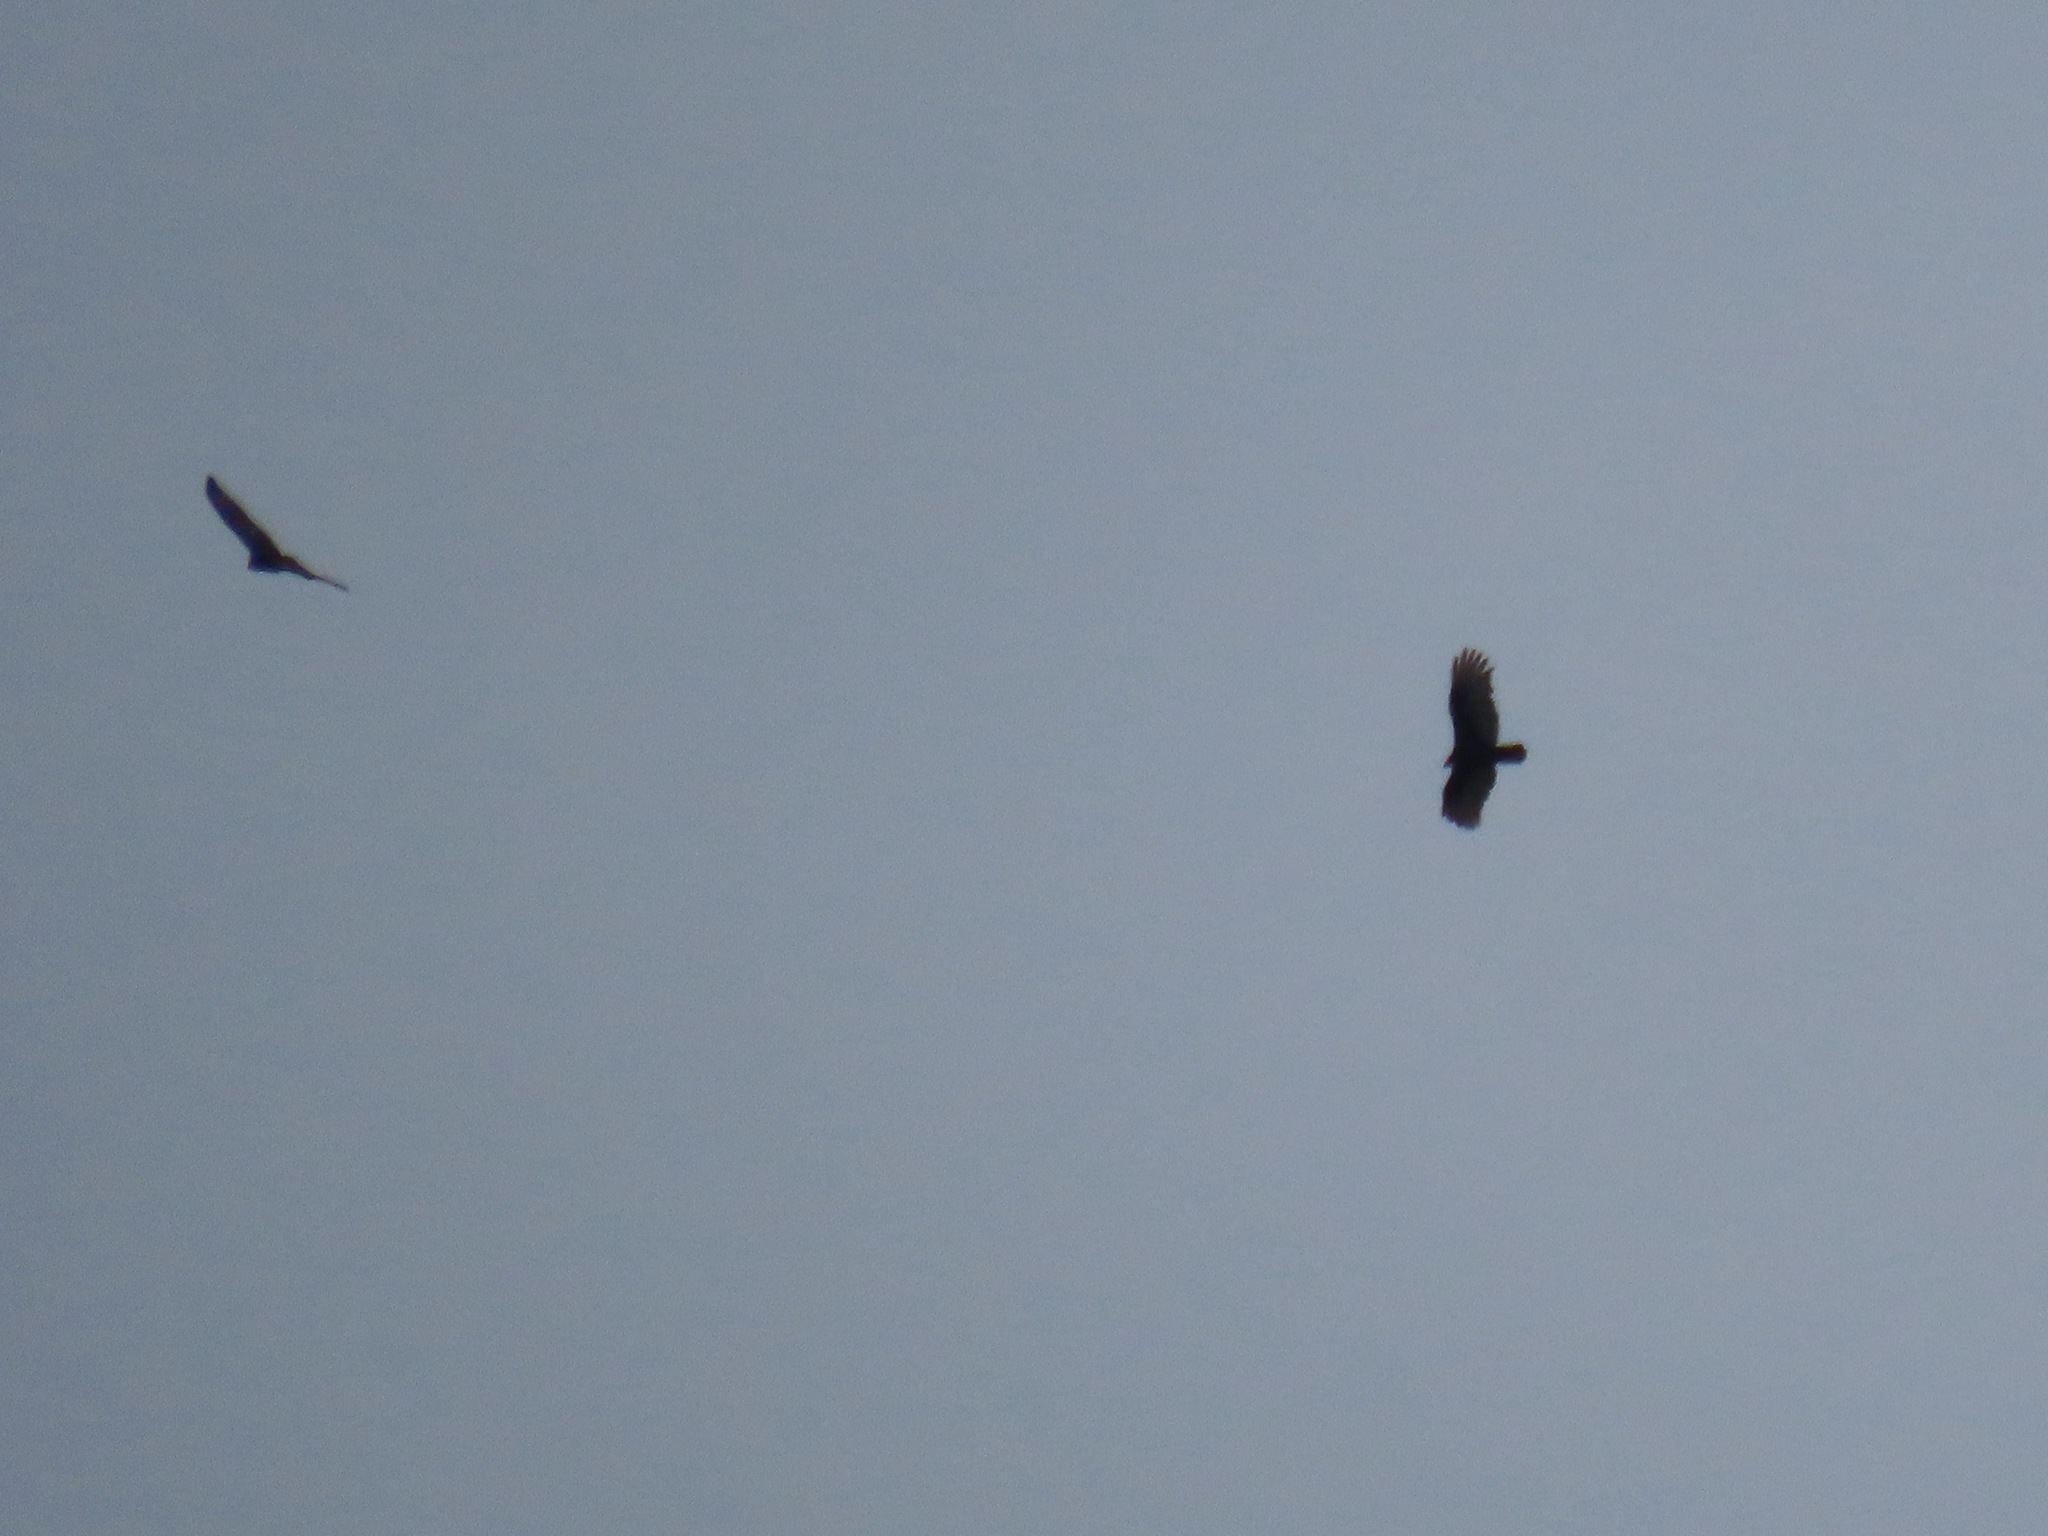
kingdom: Animalia
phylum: Chordata
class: Aves
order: Accipitriformes
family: Cathartidae
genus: Cathartes
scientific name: Cathartes aura
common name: Turkey vulture
